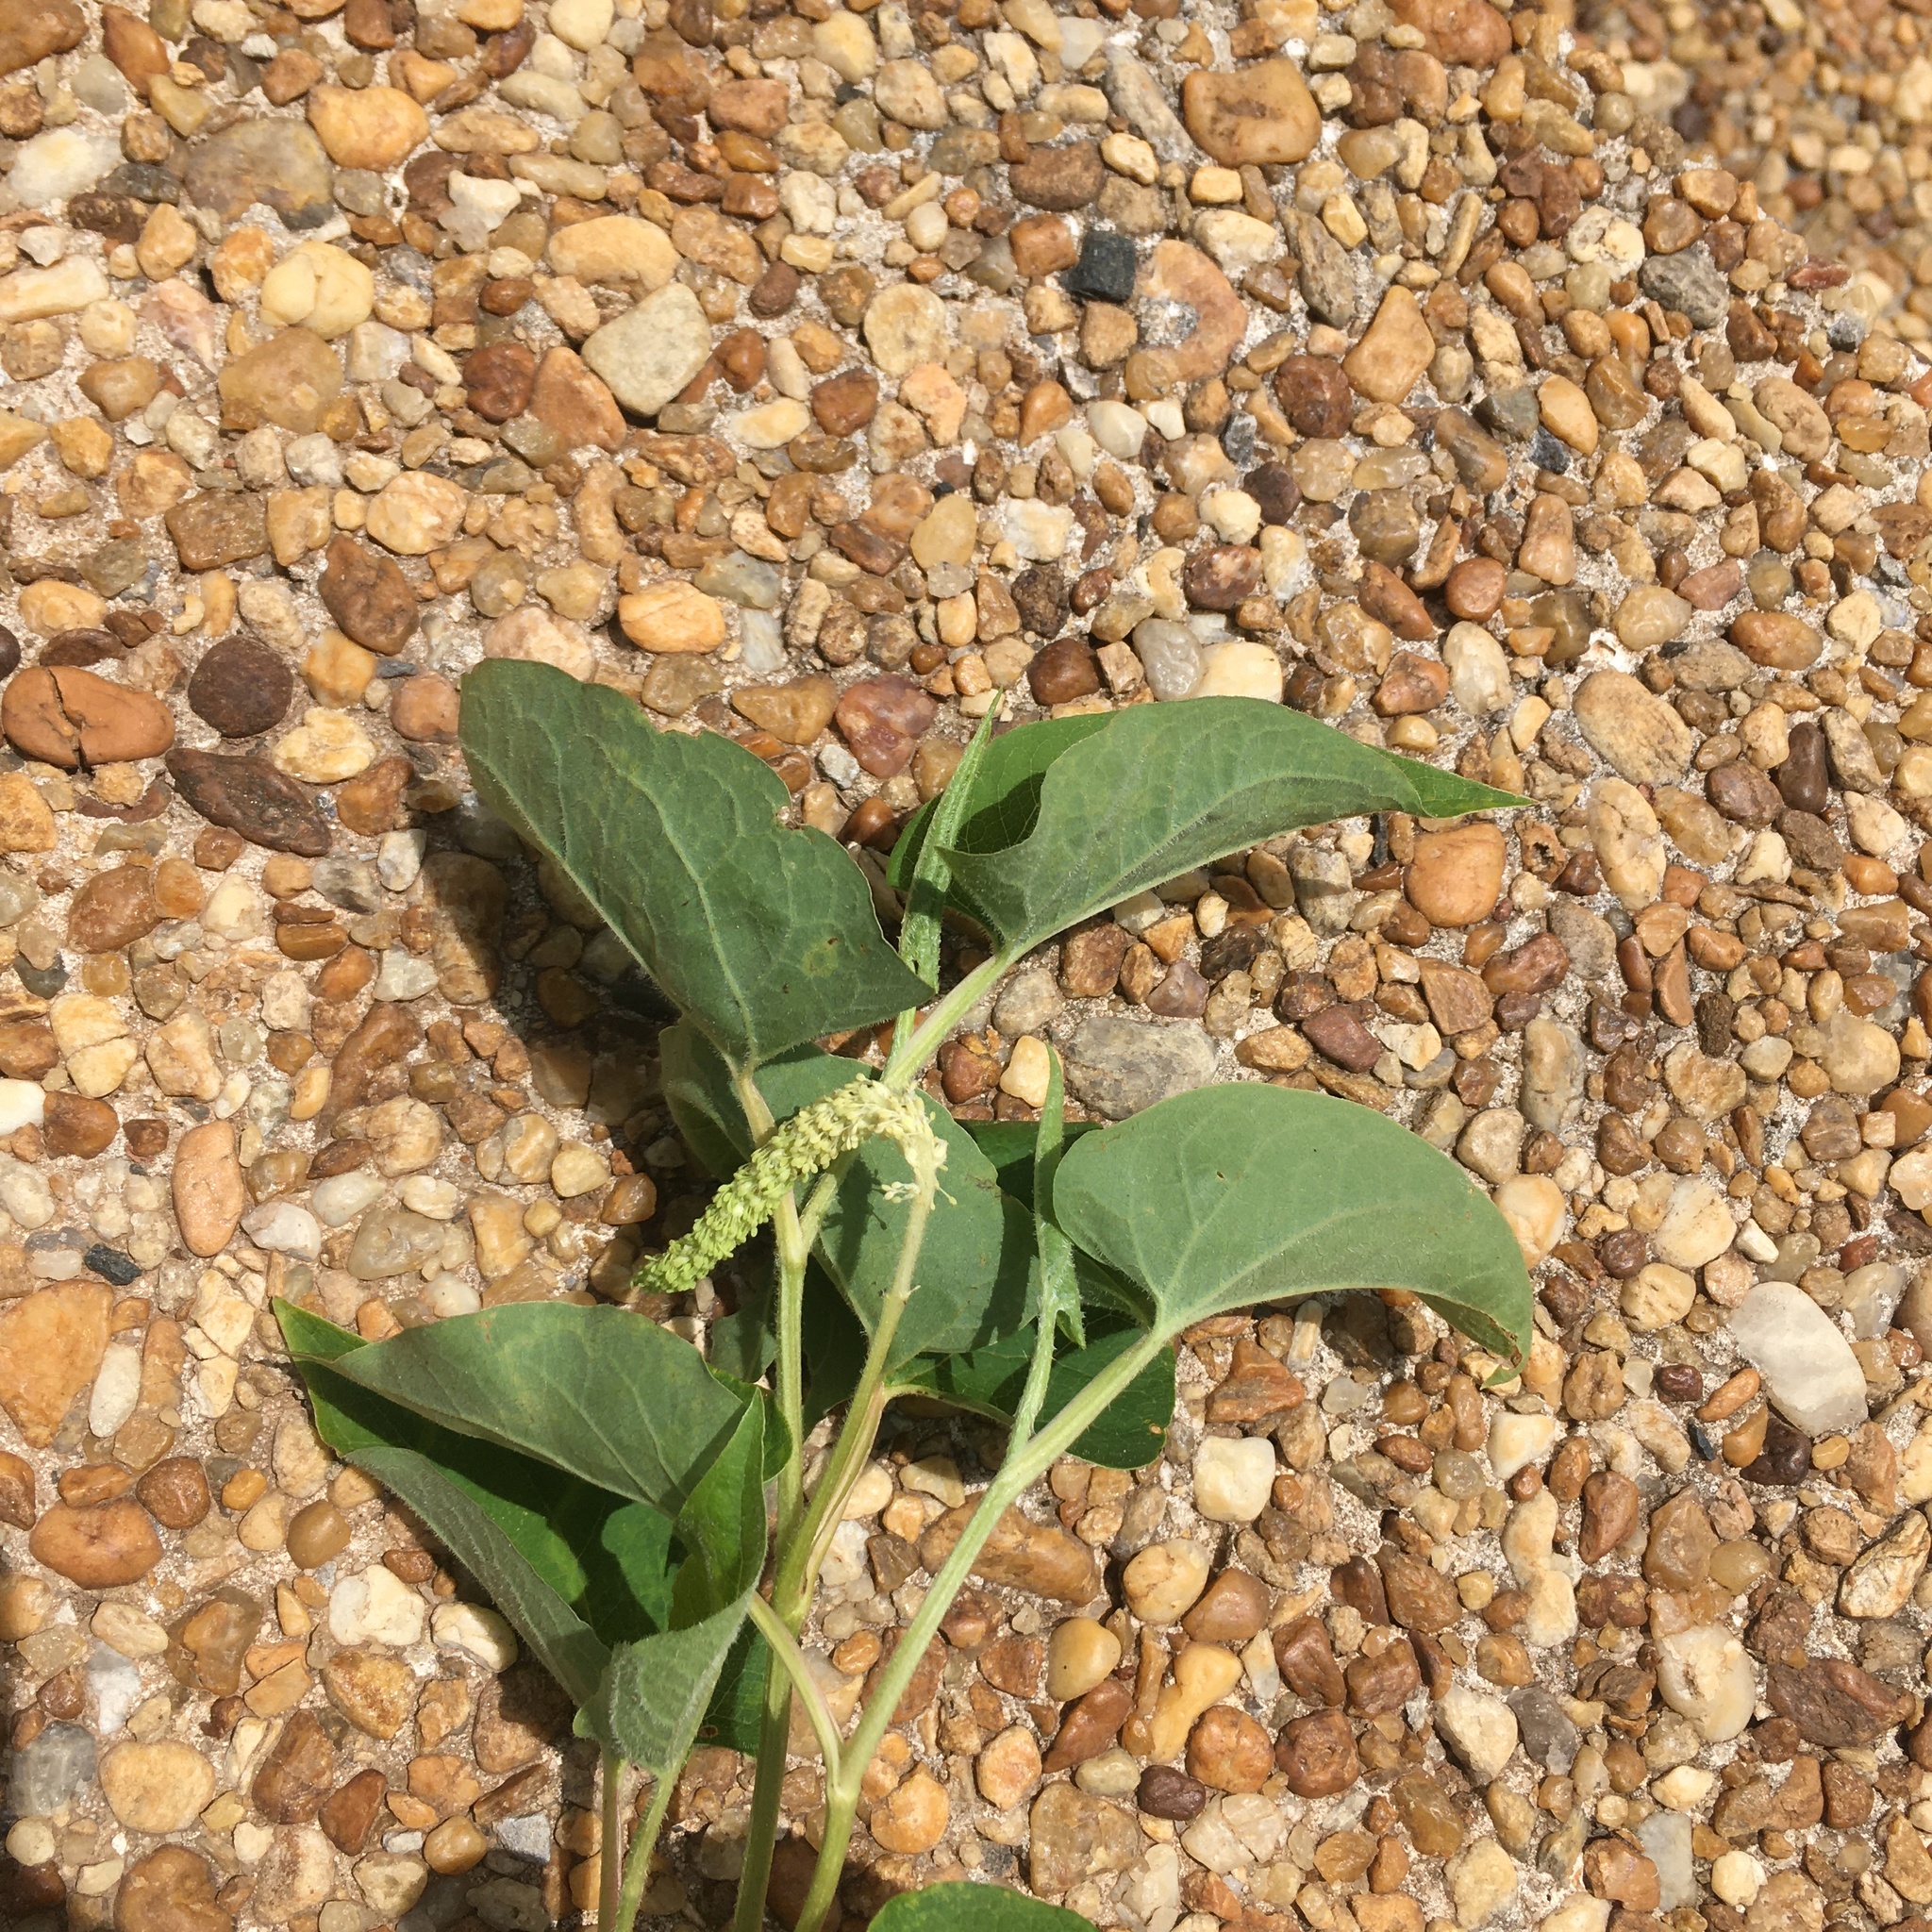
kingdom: Plantae
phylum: Tracheophyta
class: Magnoliopsida
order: Piperales
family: Saururaceae
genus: Saururus
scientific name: Saururus cernuus
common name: Lizard's-tail
